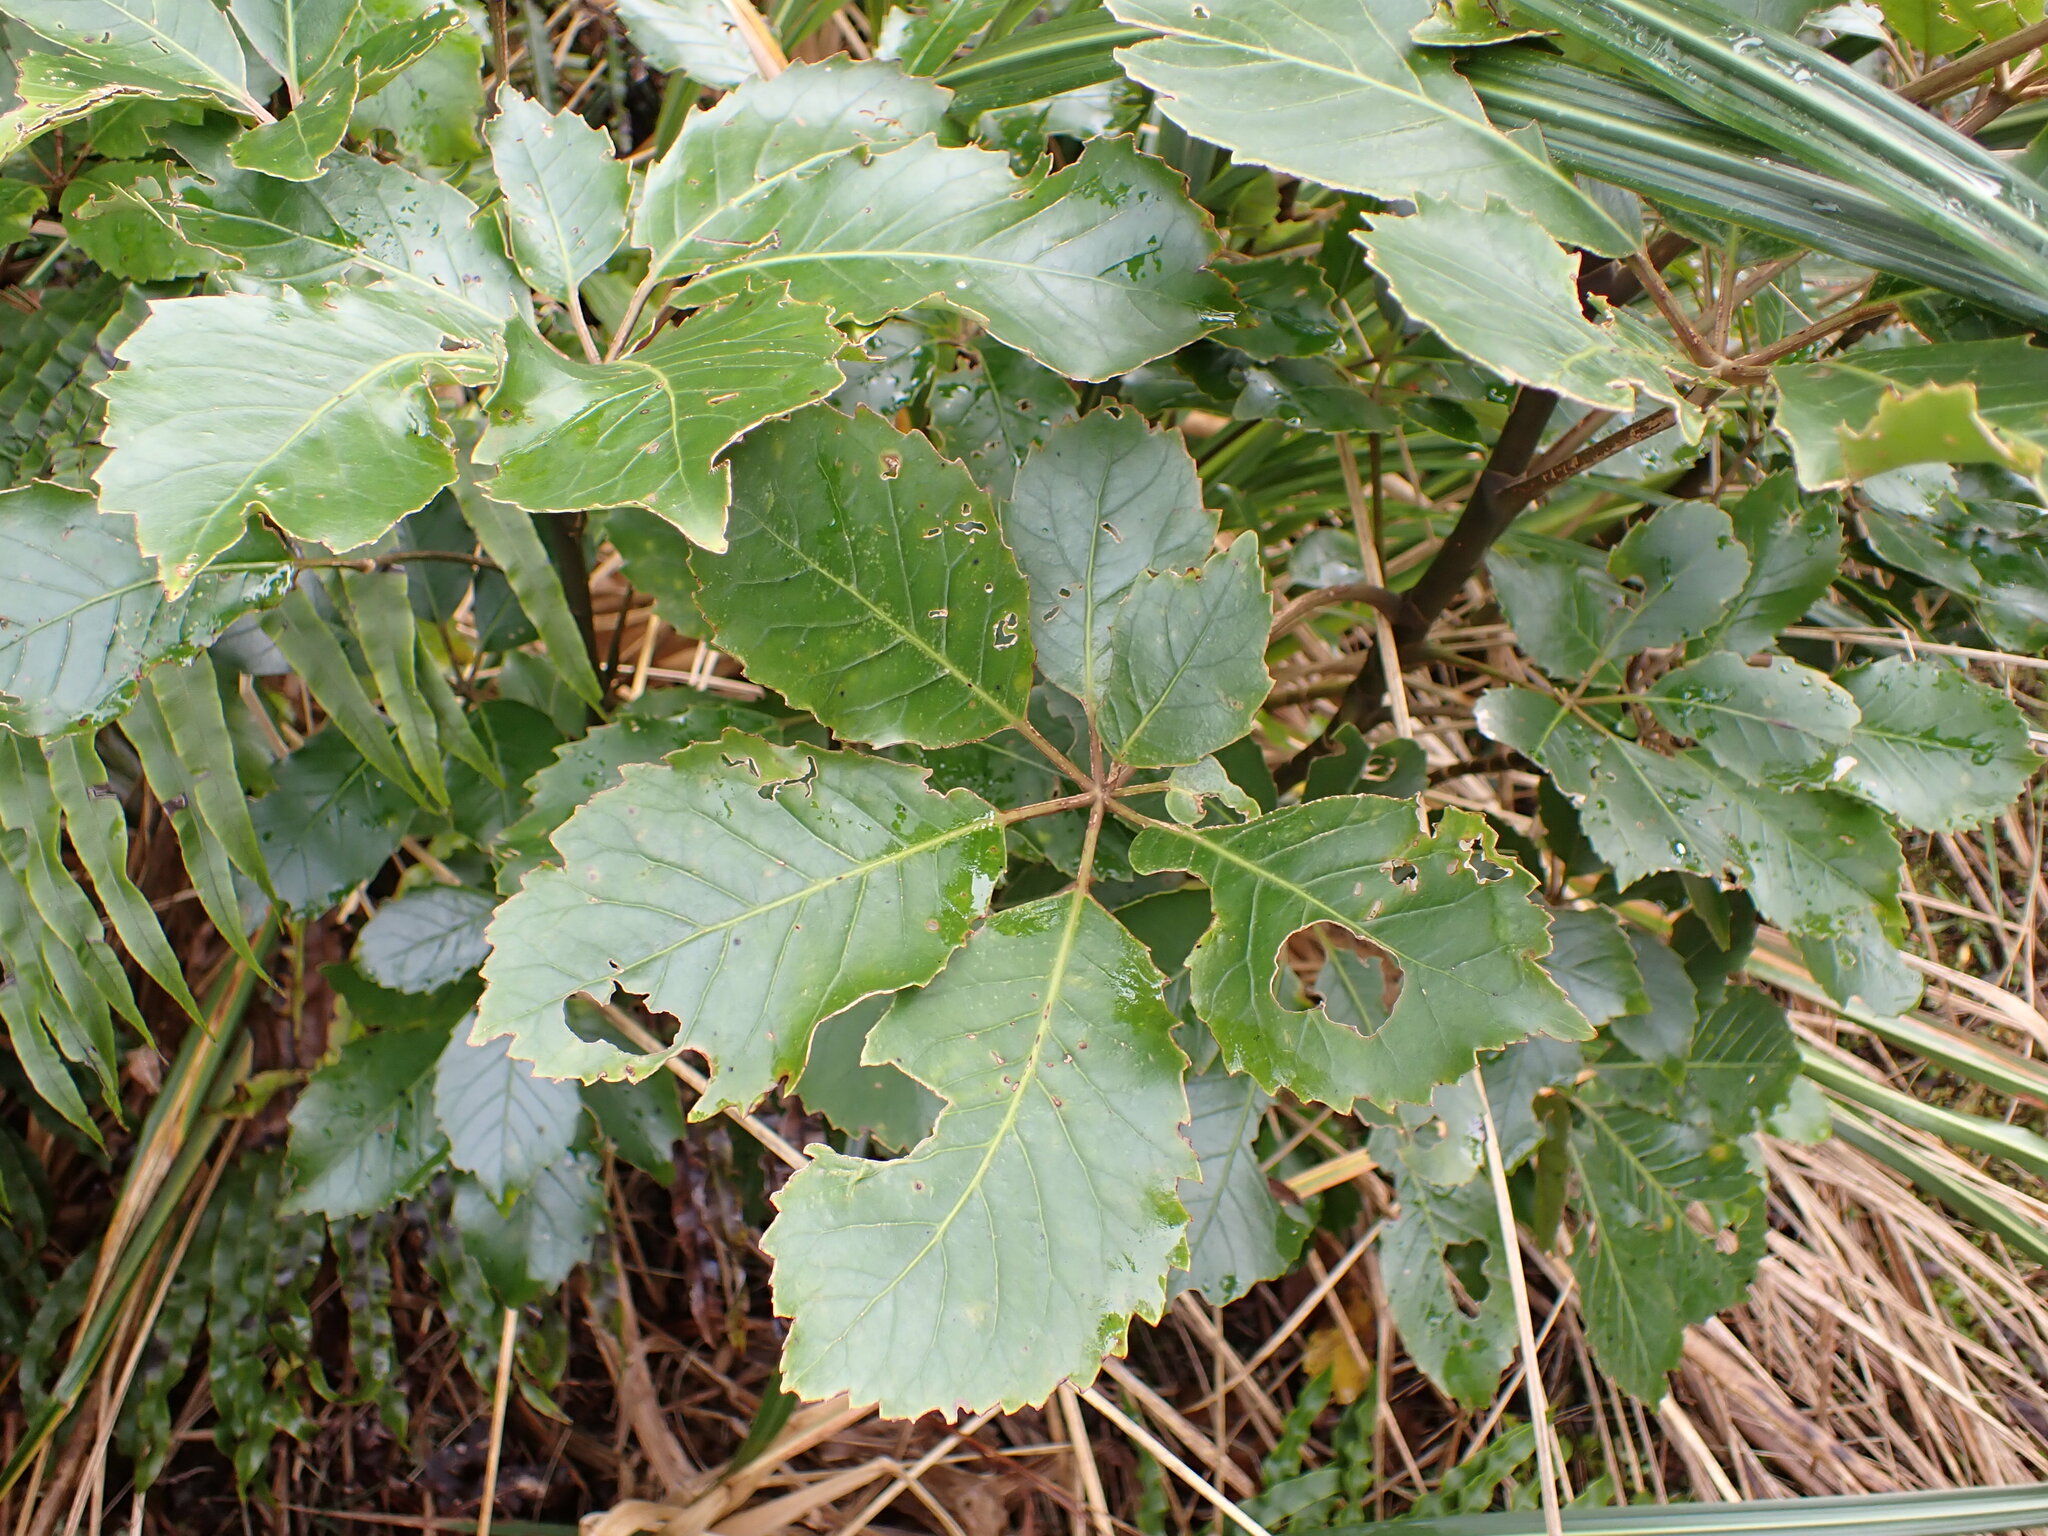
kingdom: Plantae
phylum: Tracheophyta
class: Magnoliopsida
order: Apiales
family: Araliaceae
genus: Neopanax
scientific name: Neopanax arboreus
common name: Five-fingers
